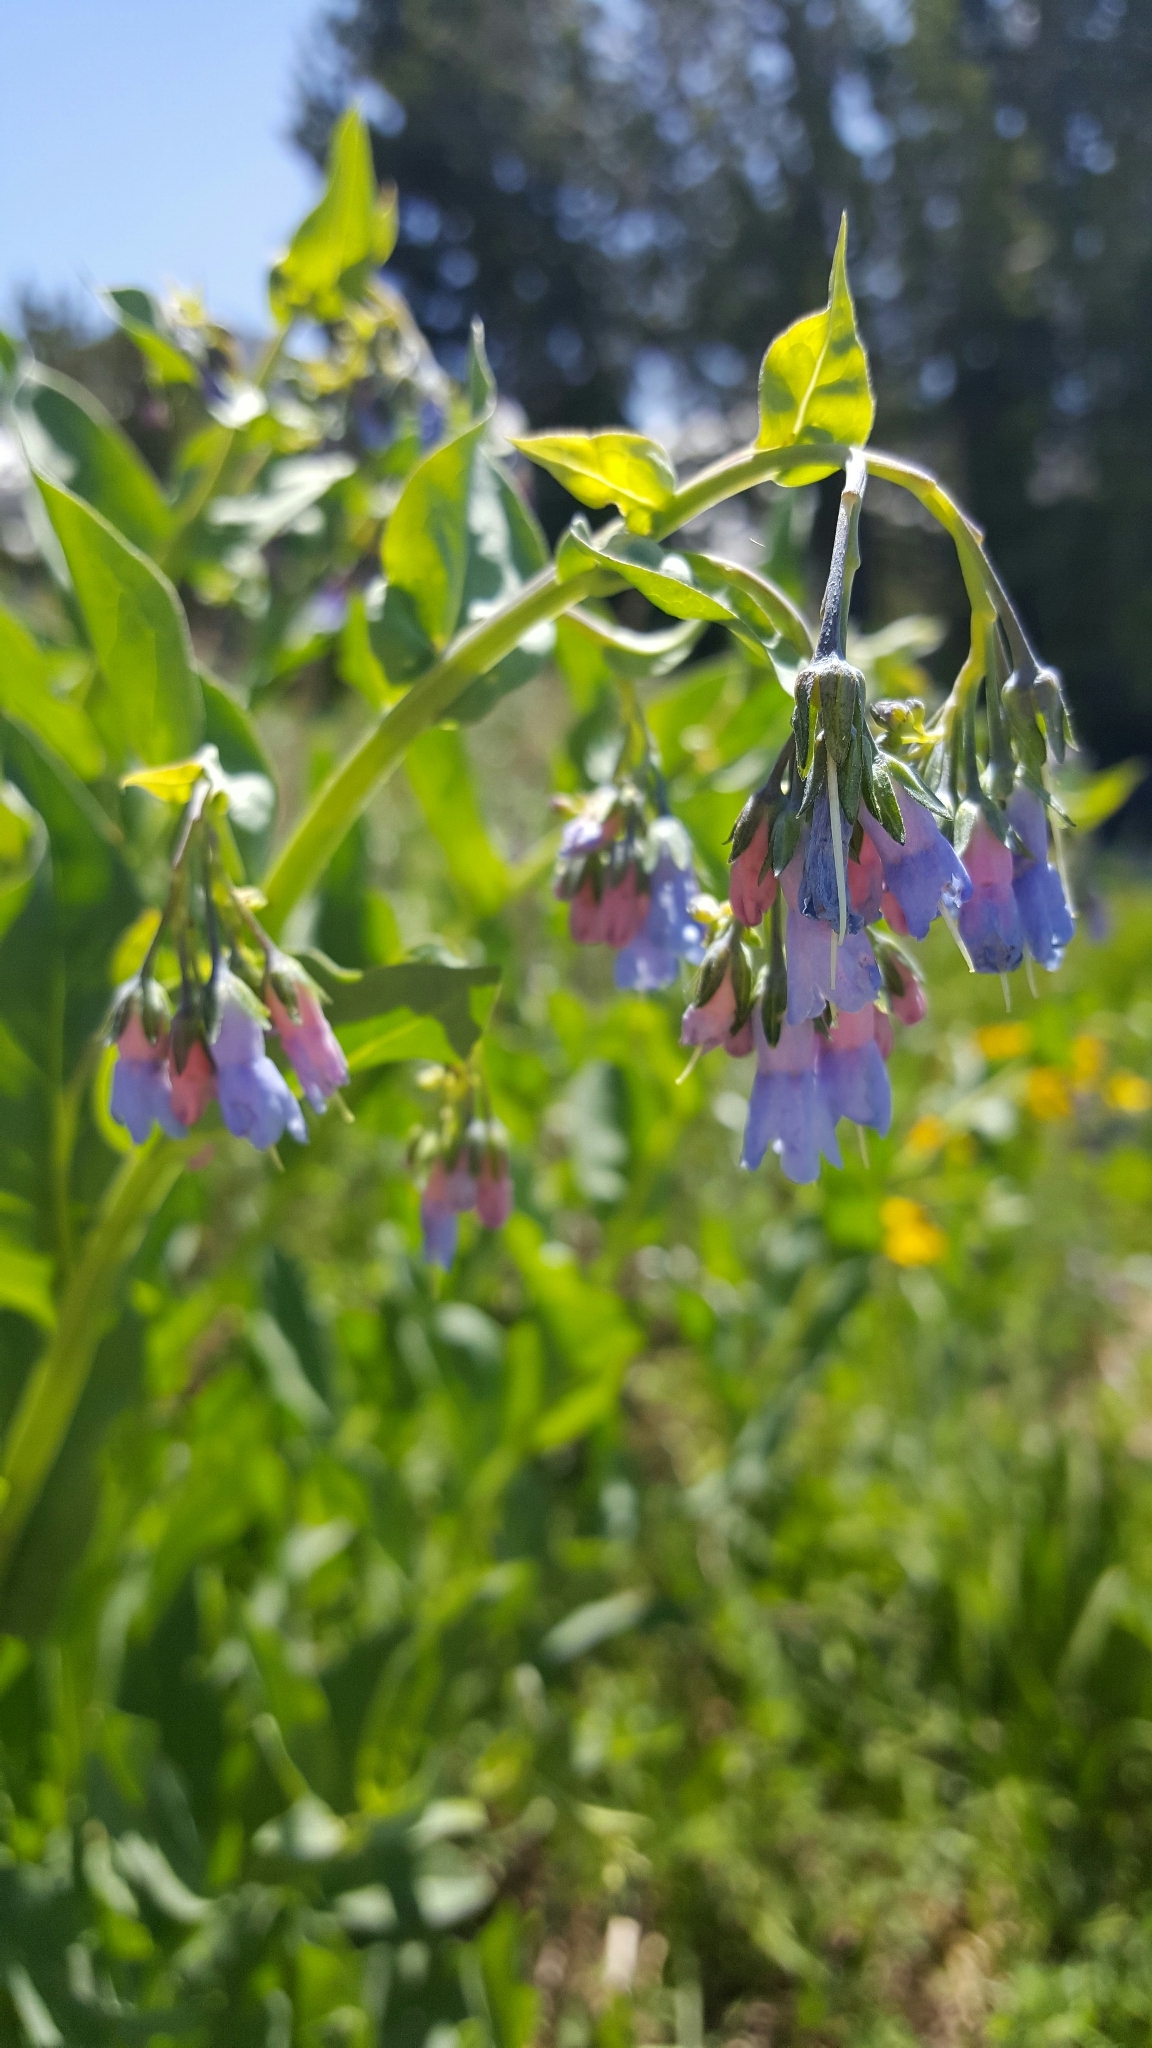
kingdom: Plantae
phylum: Tracheophyta
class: Magnoliopsida
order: Boraginales
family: Boraginaceae
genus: Mertensia
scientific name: Mertensia ciliata
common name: Tall chiming-bells
